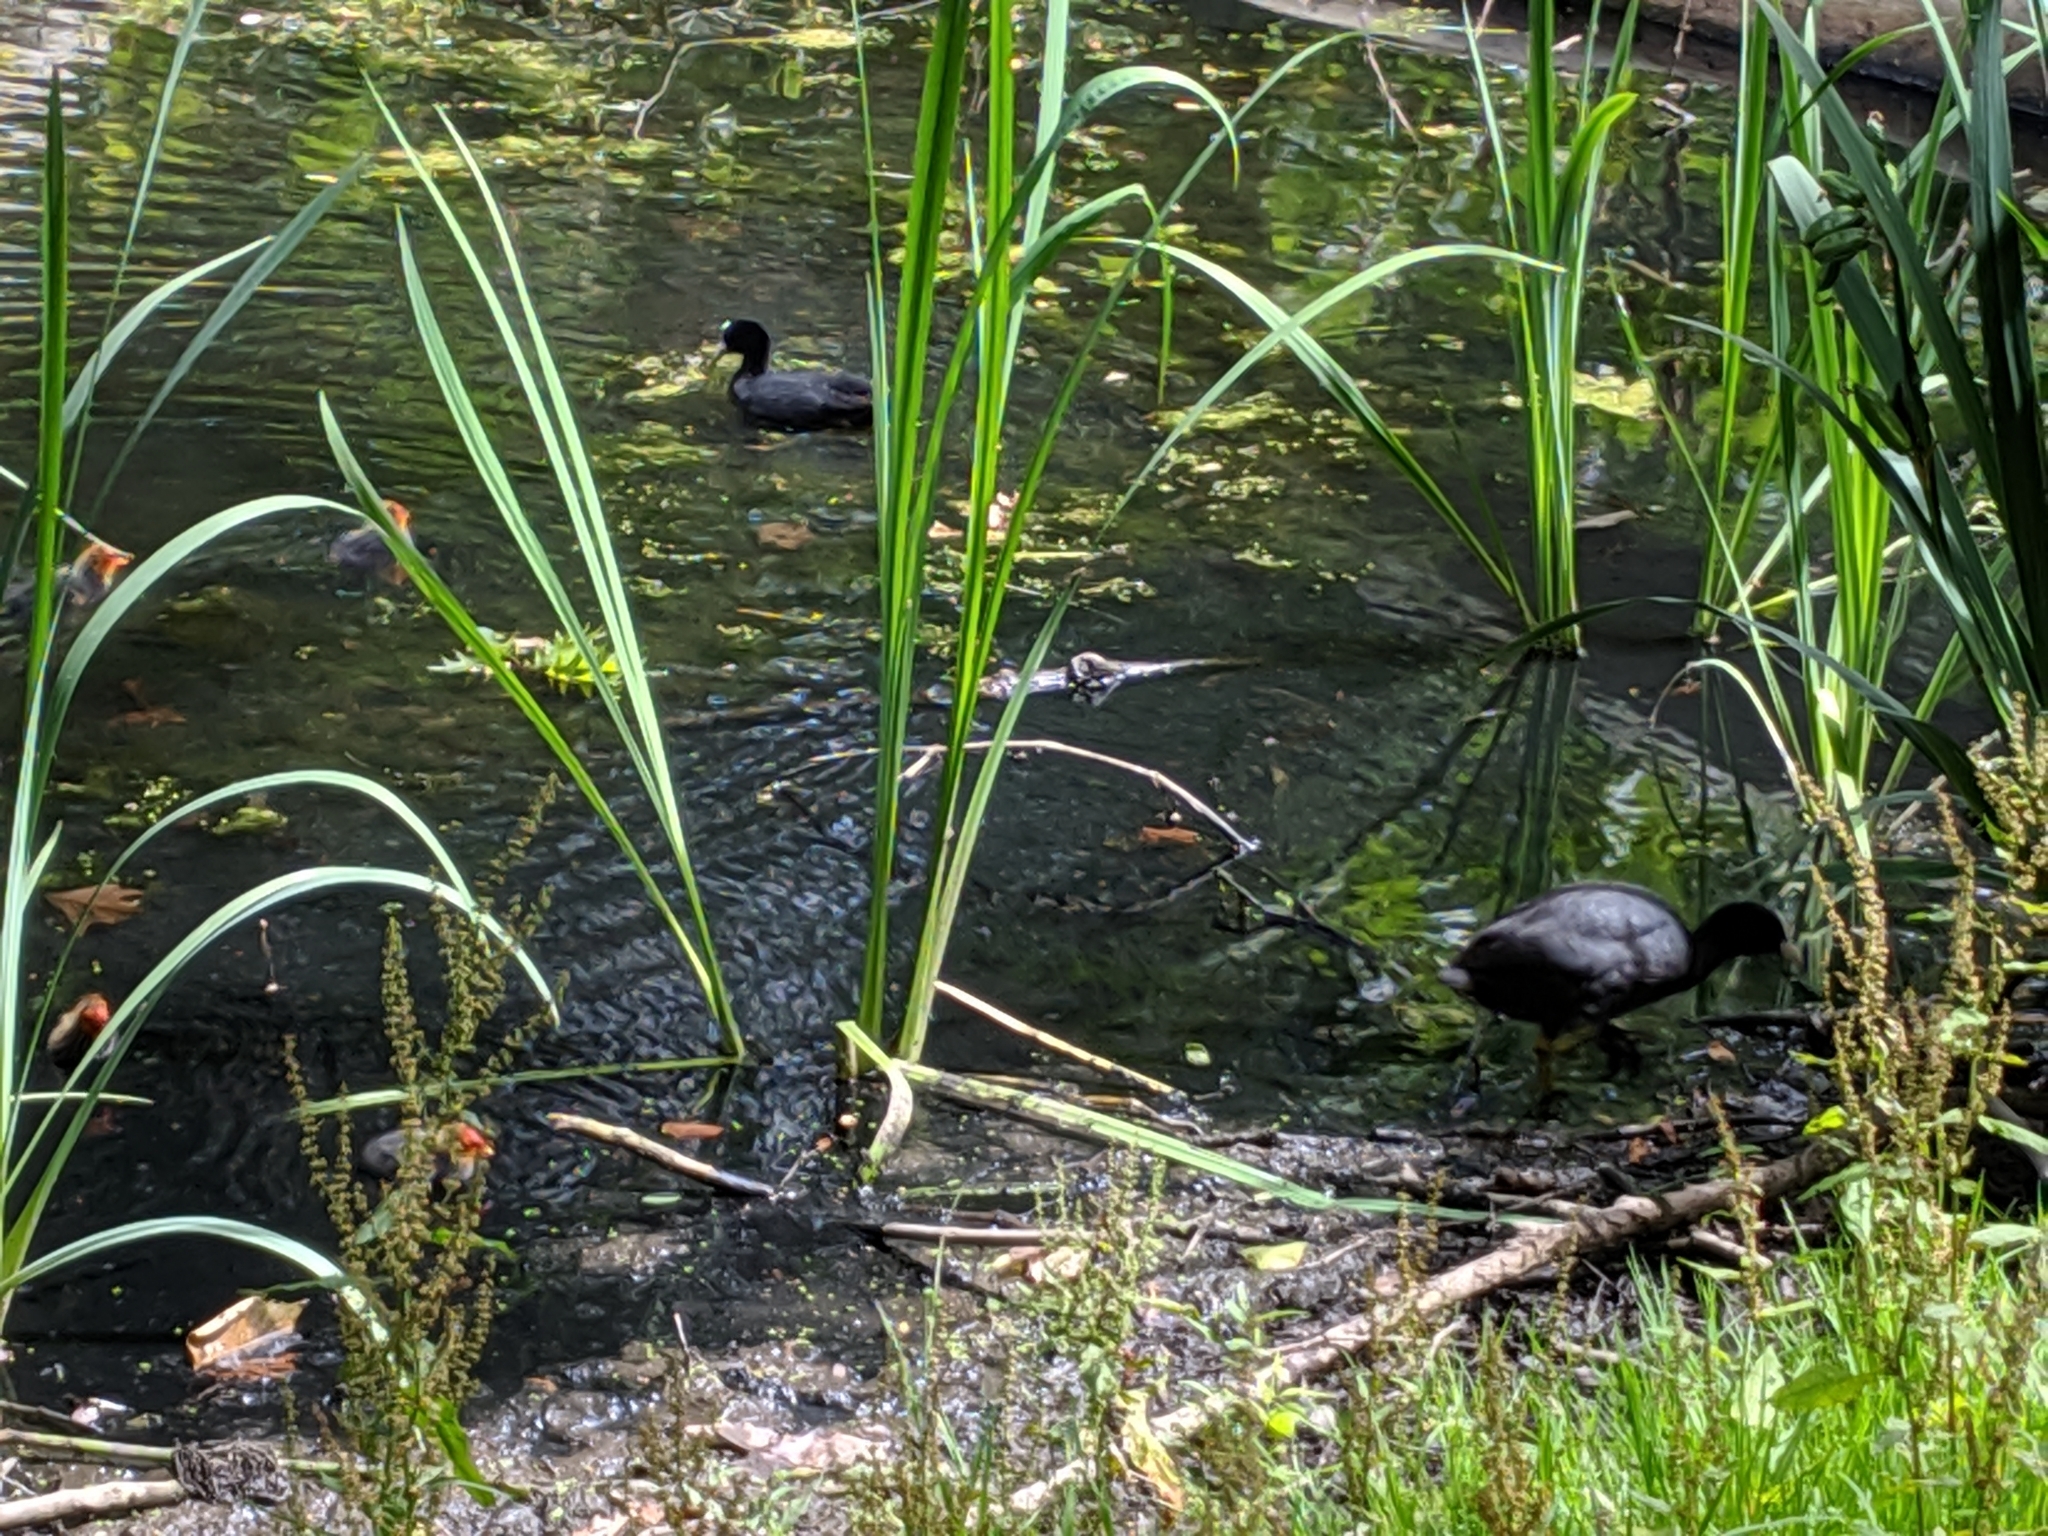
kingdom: Animalia
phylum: Chordata
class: Aves
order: Gruiformes
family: Rallidae
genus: Fulica
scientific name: Fulica atra
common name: Eurasian coot
